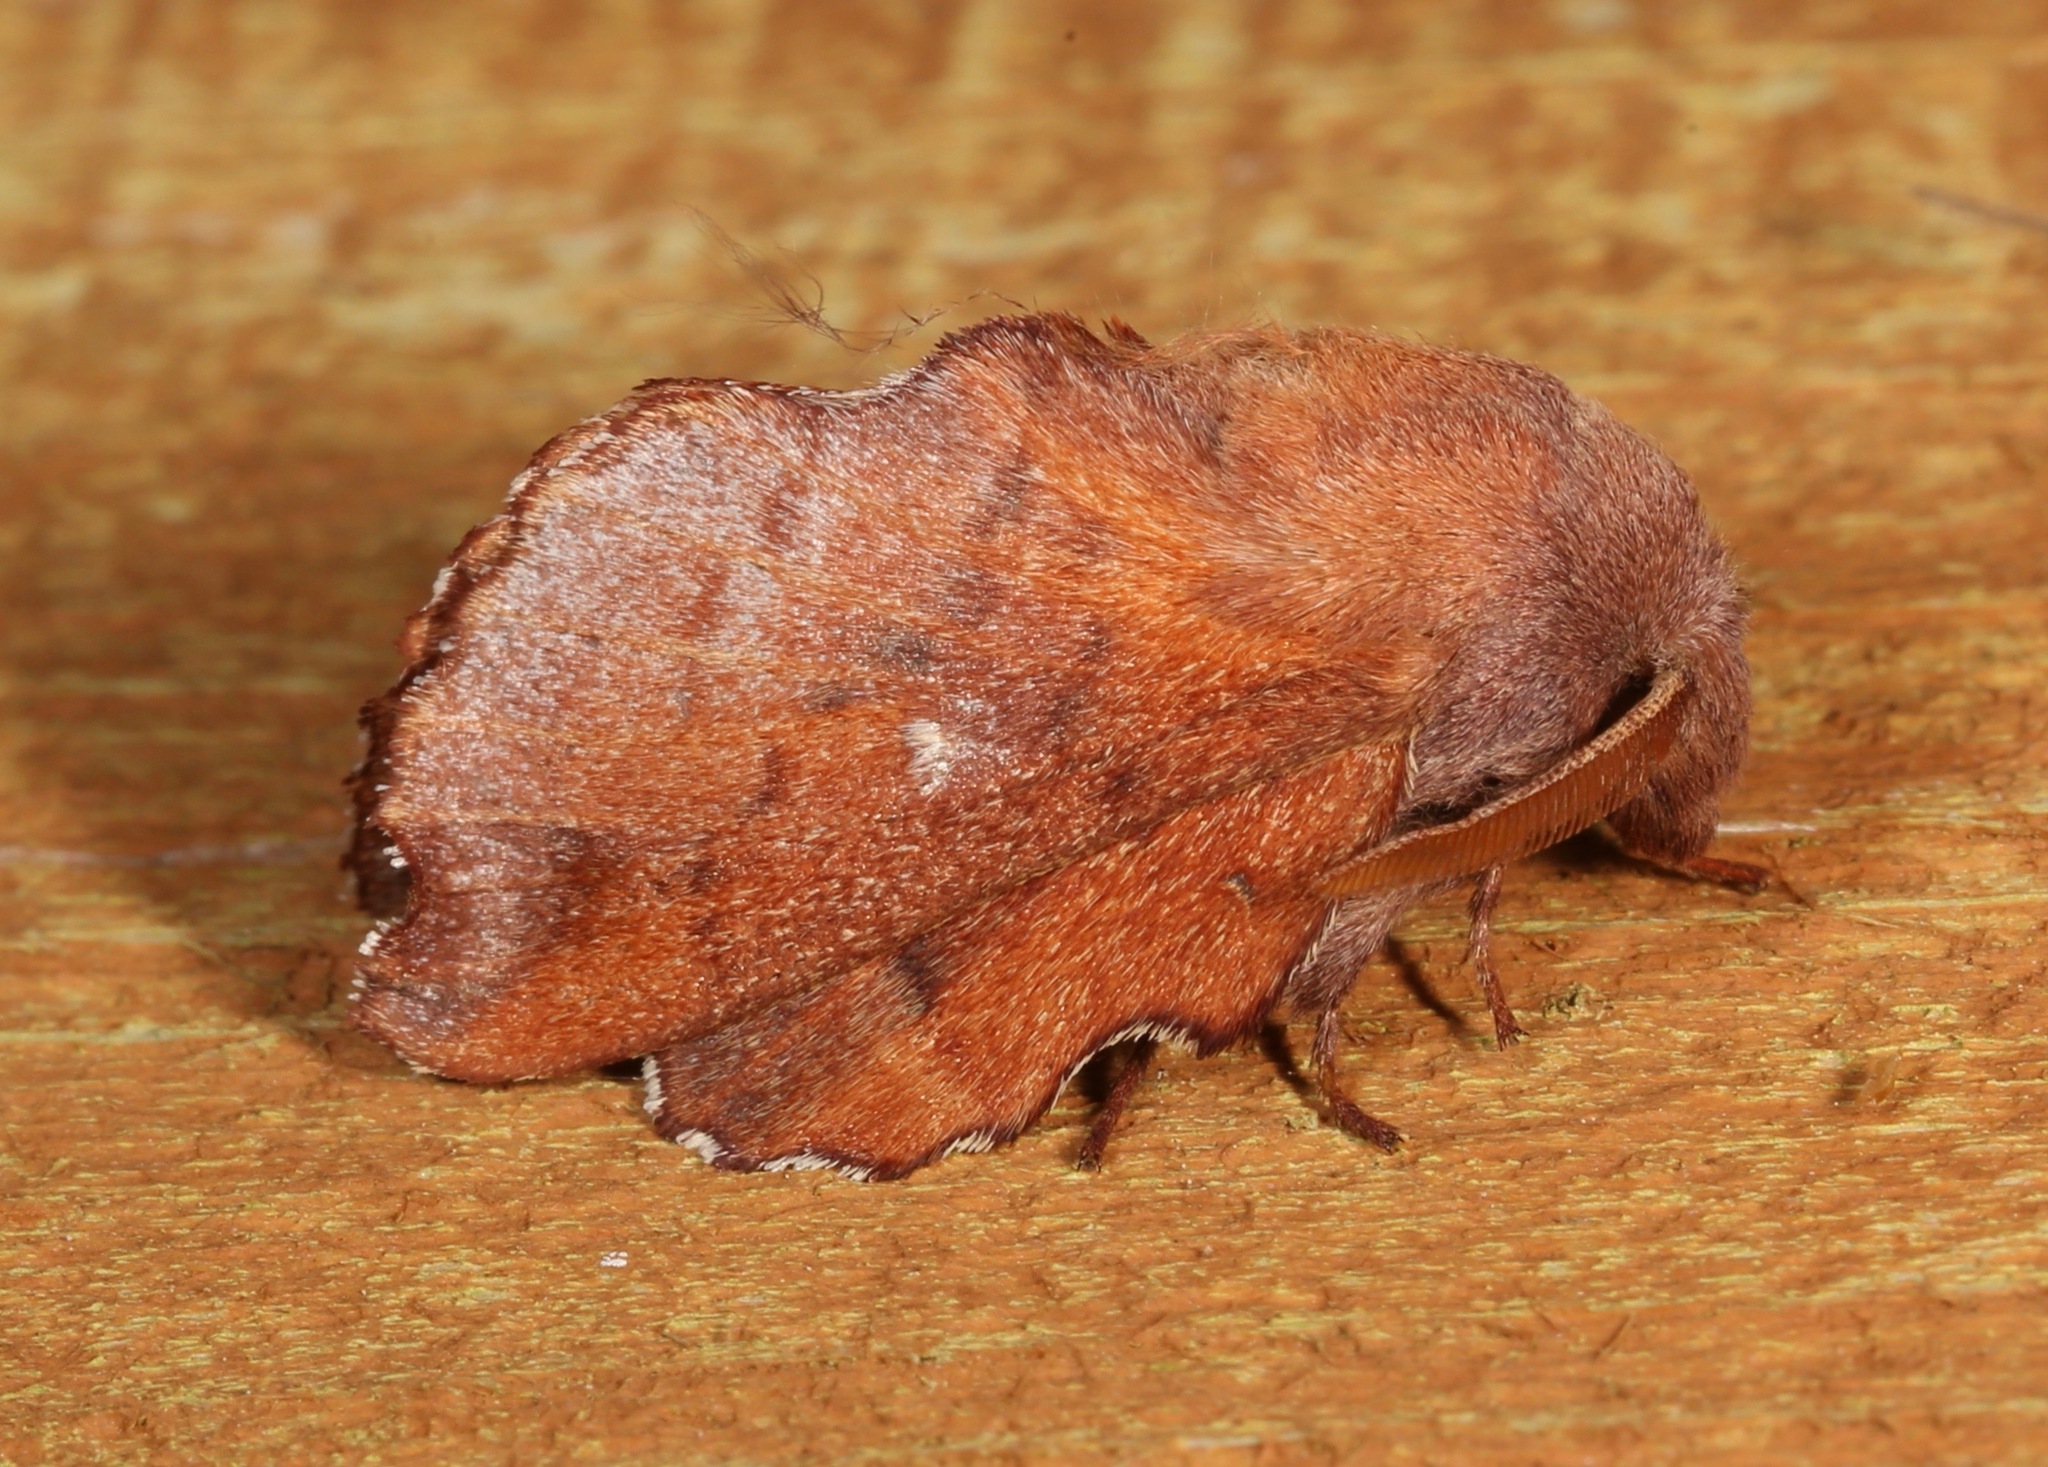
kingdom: Animalia
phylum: Arthropoda
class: Insecta
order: Lepidoptera
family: Lasiocampidae
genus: Phyllodesma
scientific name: Phyllodesma americana
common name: American lappet moth
